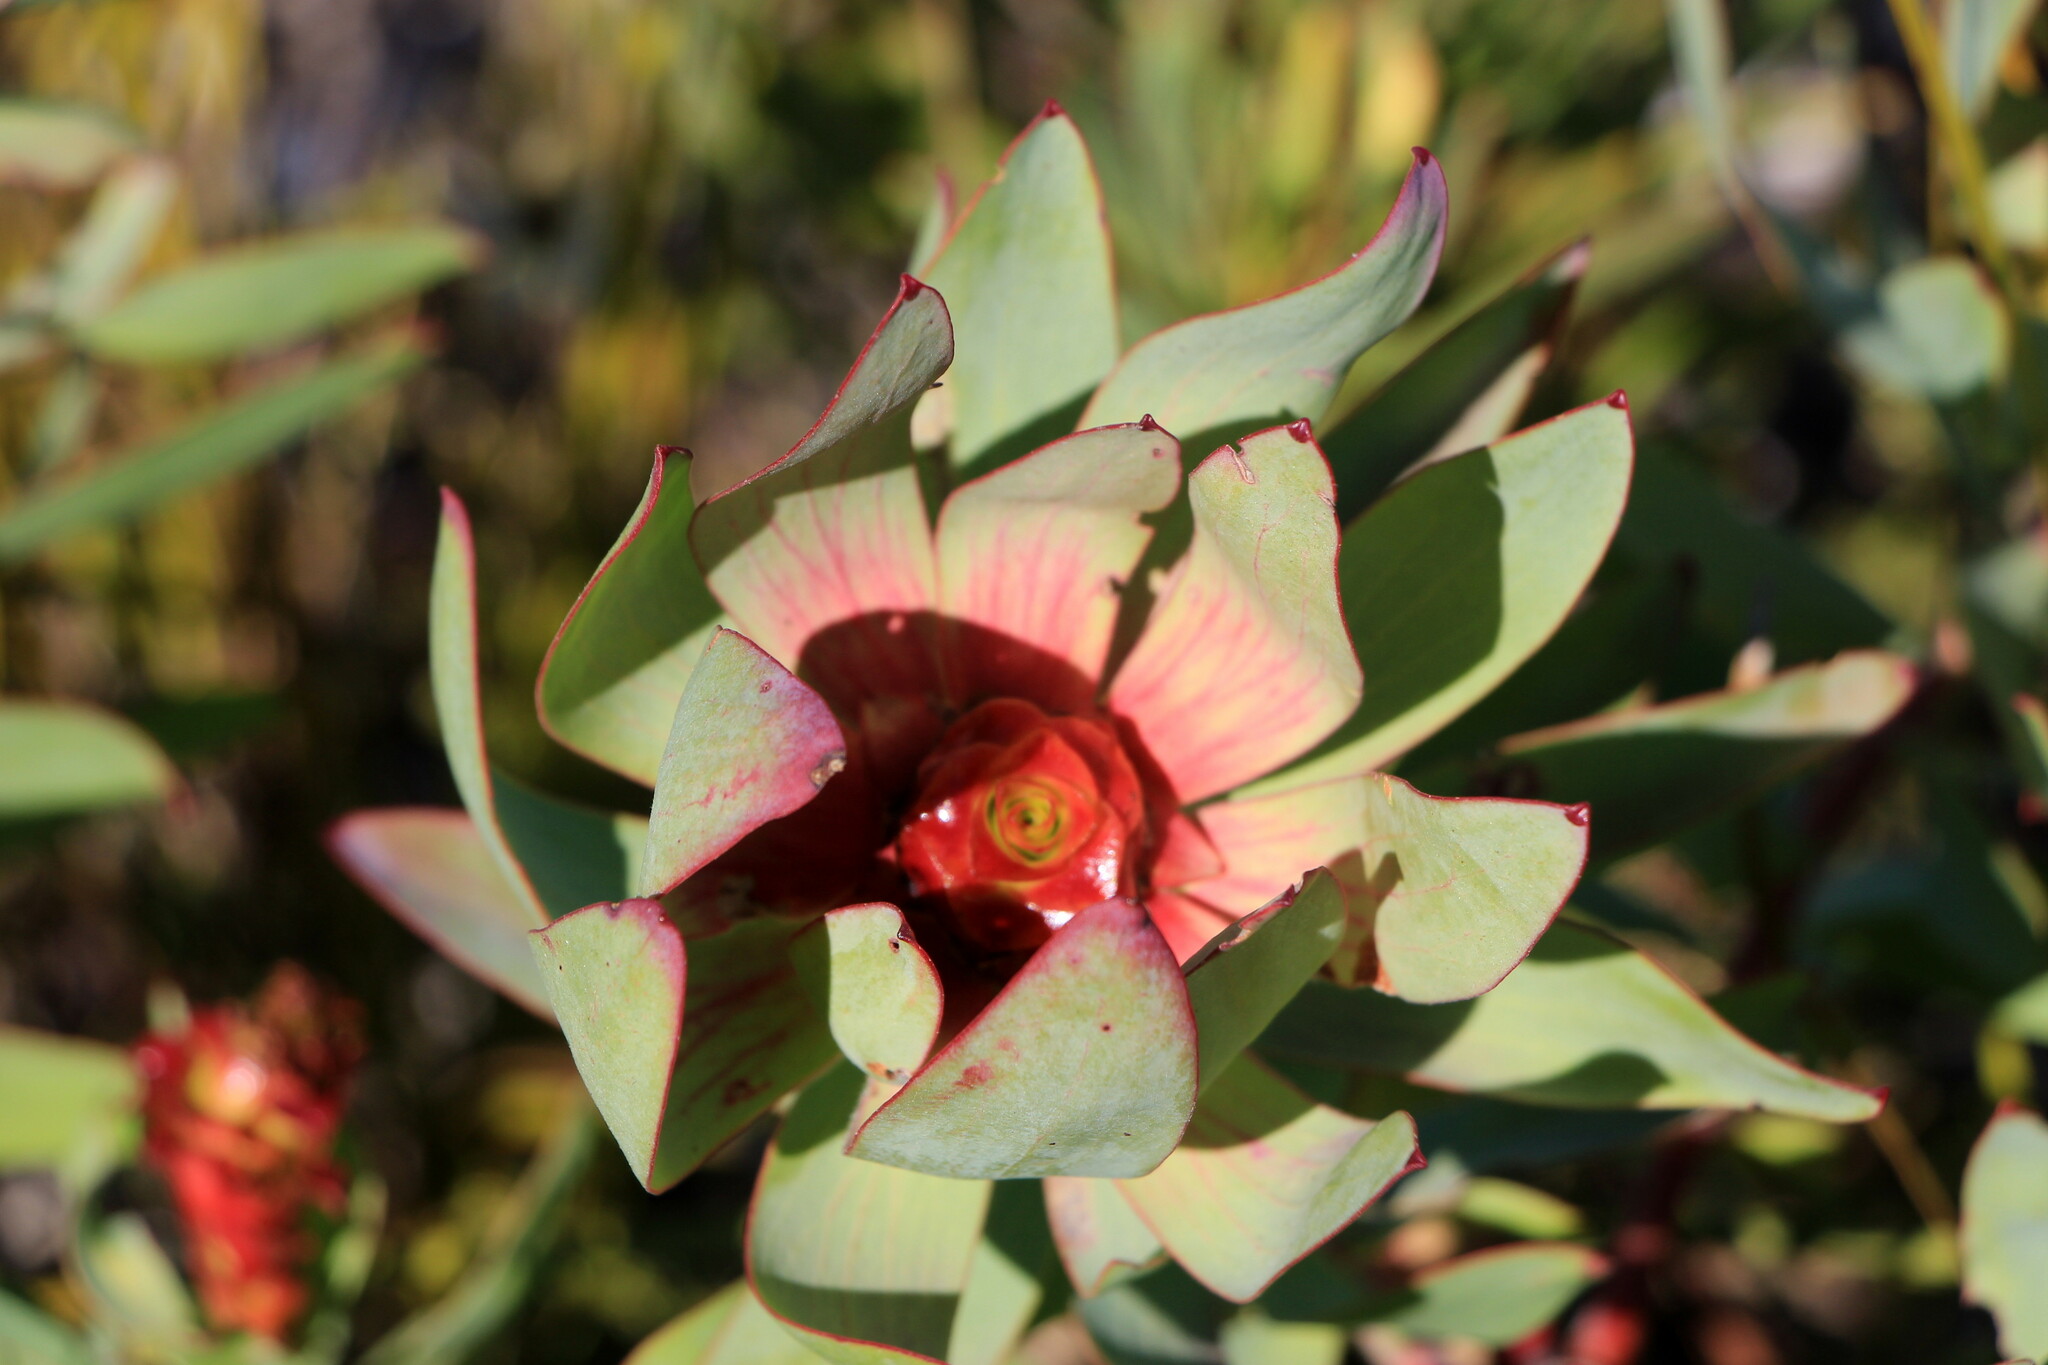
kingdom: Plantae
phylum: Tracheophyta
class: Magnoliopsida
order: Proteales
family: Proteaceae
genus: Leucadendron
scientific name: Leucadendron tinctum
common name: Spicy conebush
